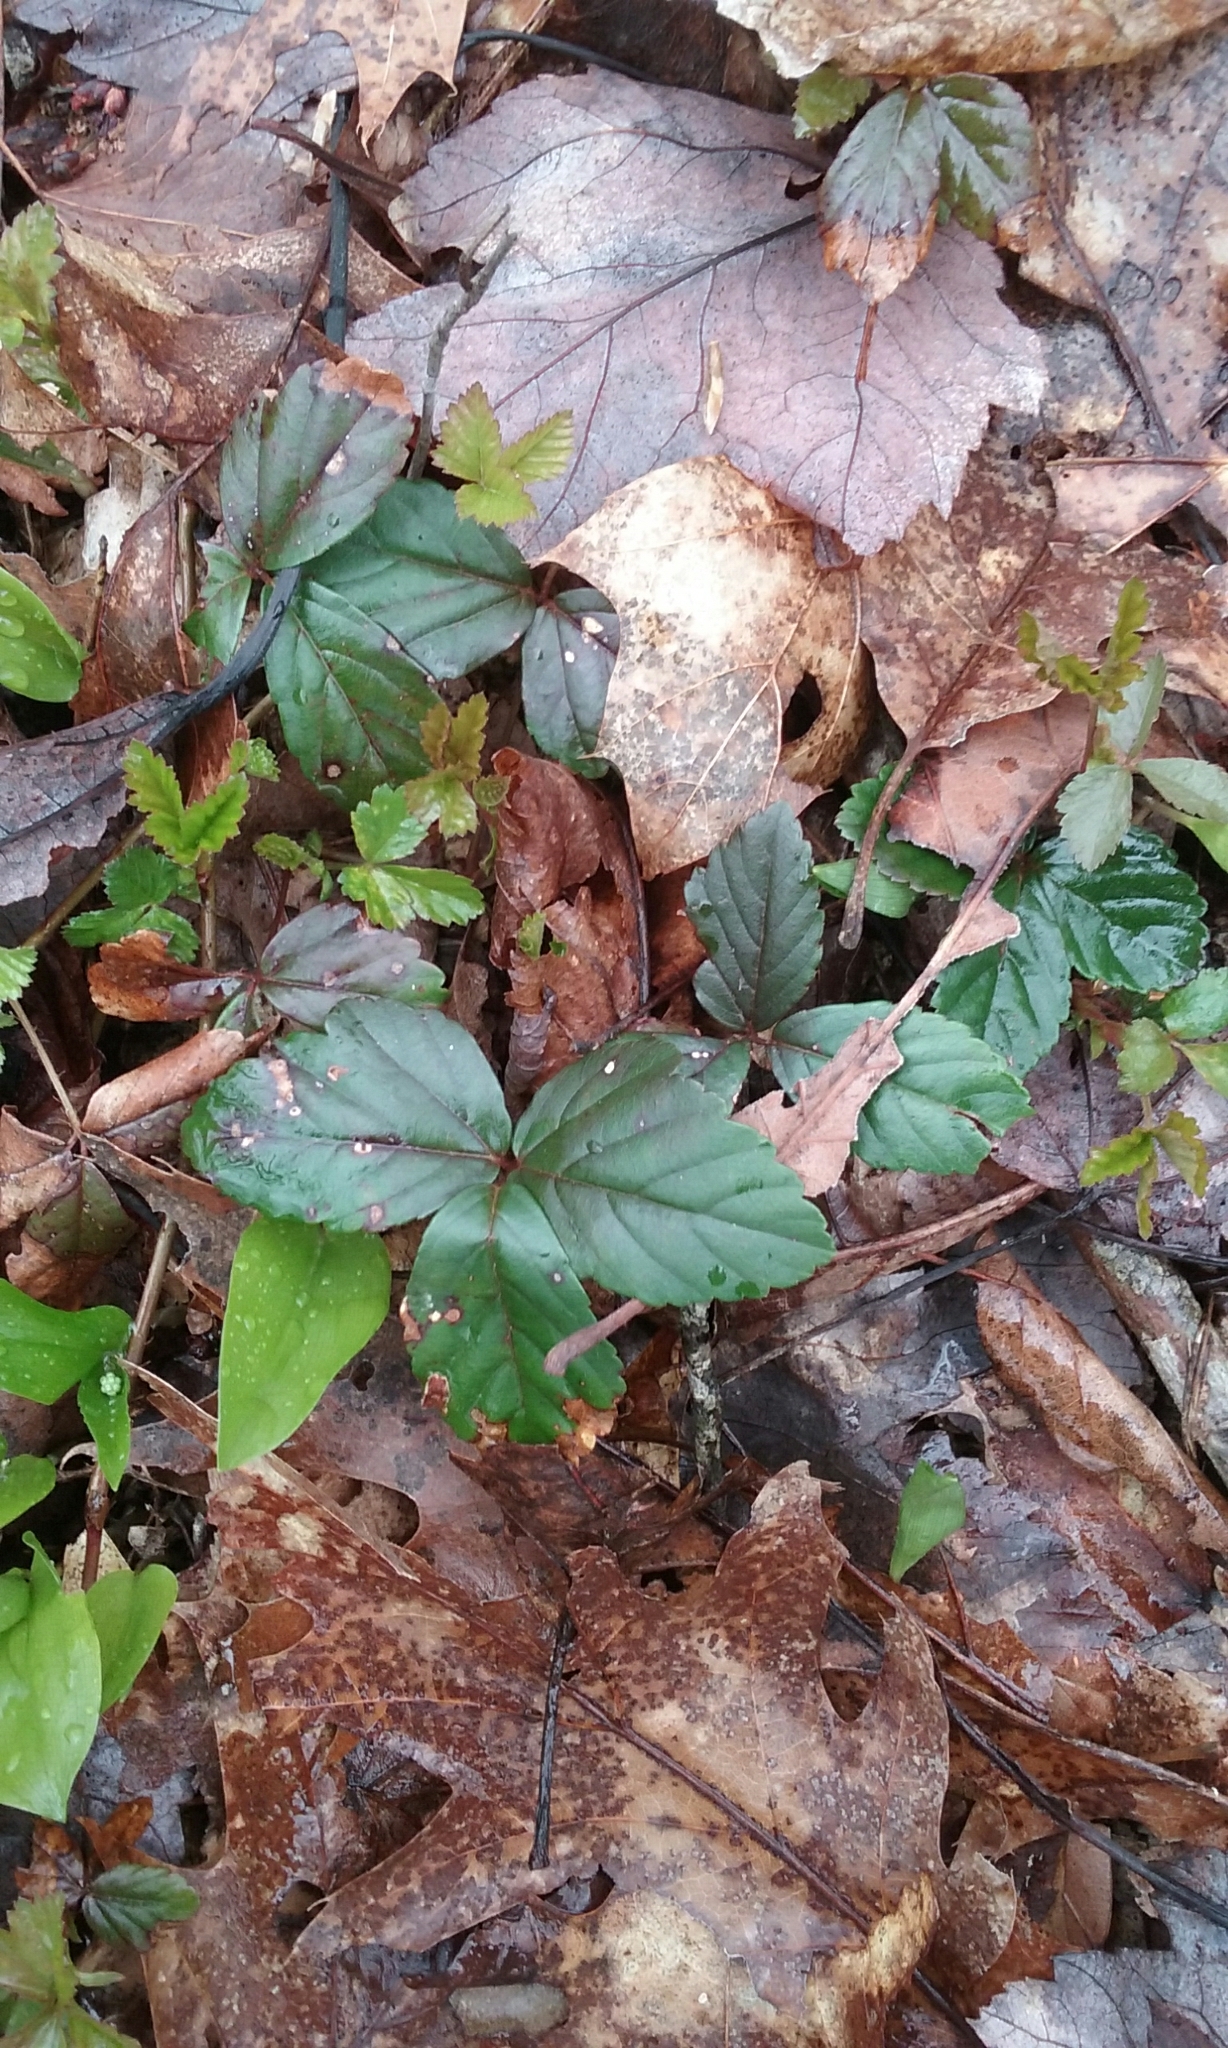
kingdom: Plantae
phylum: Tracheophyta
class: Magnoliopsida
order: Rosales
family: Rosaceae
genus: Rubus
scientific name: Rubus flagellaris
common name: American dewberry
